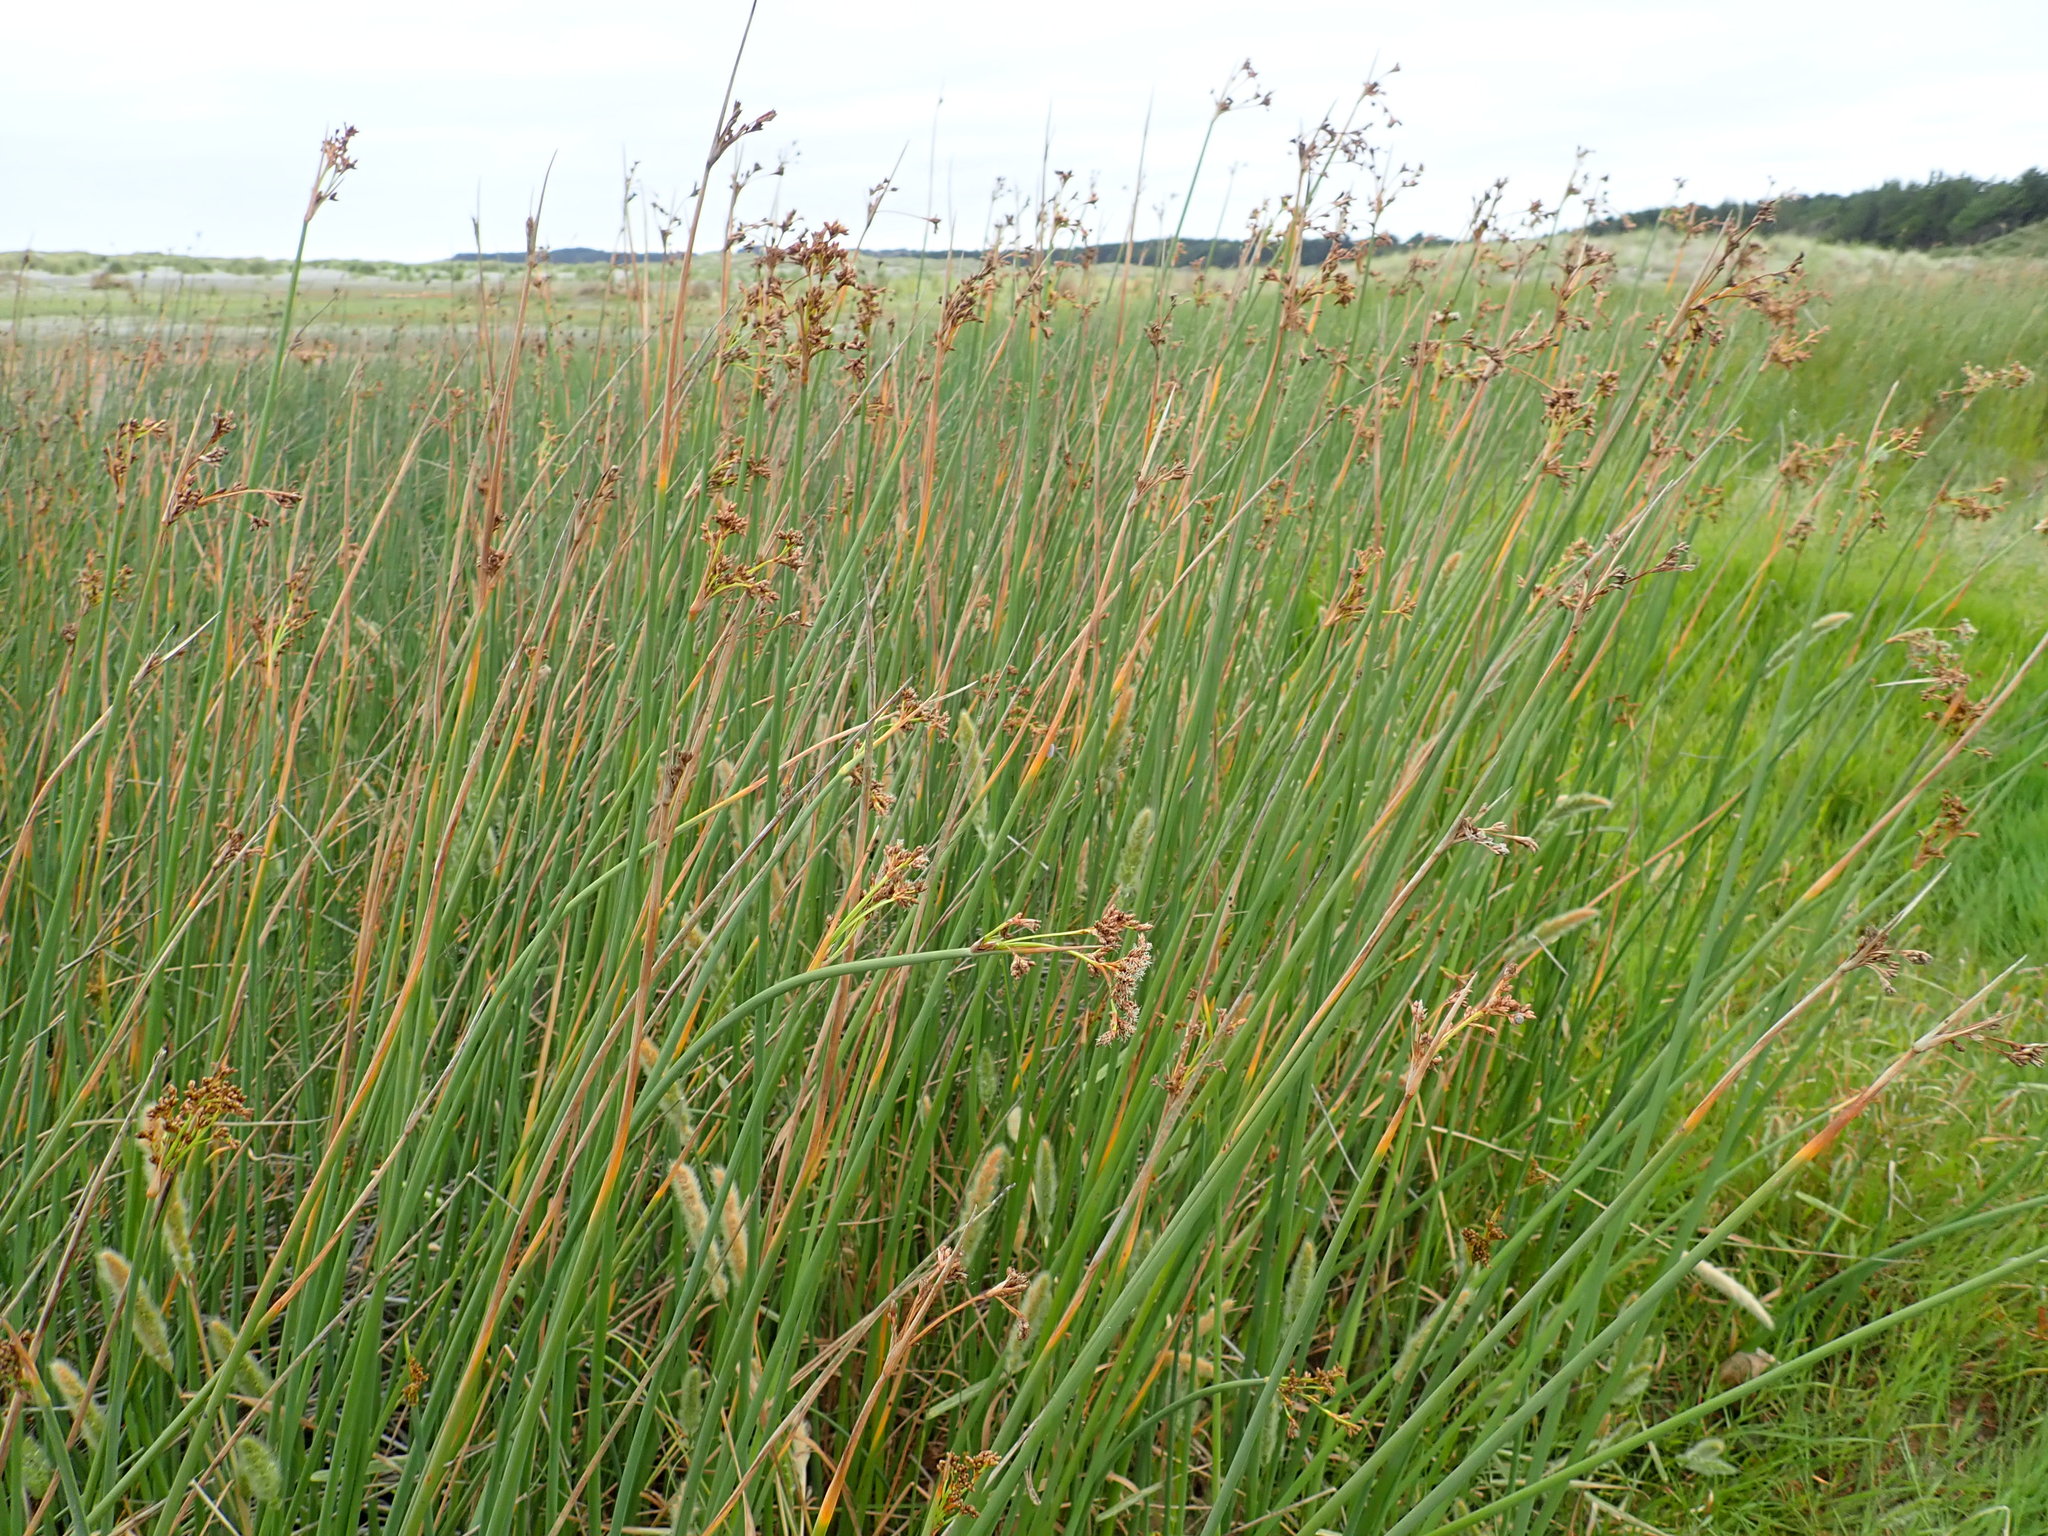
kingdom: Plantae
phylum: Tracheophyta
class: Liliopsida
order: Poales
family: Cyperaceae
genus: Schoenoplectus
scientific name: Schoenoplectus tabernaemontani
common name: Grey club-rush
